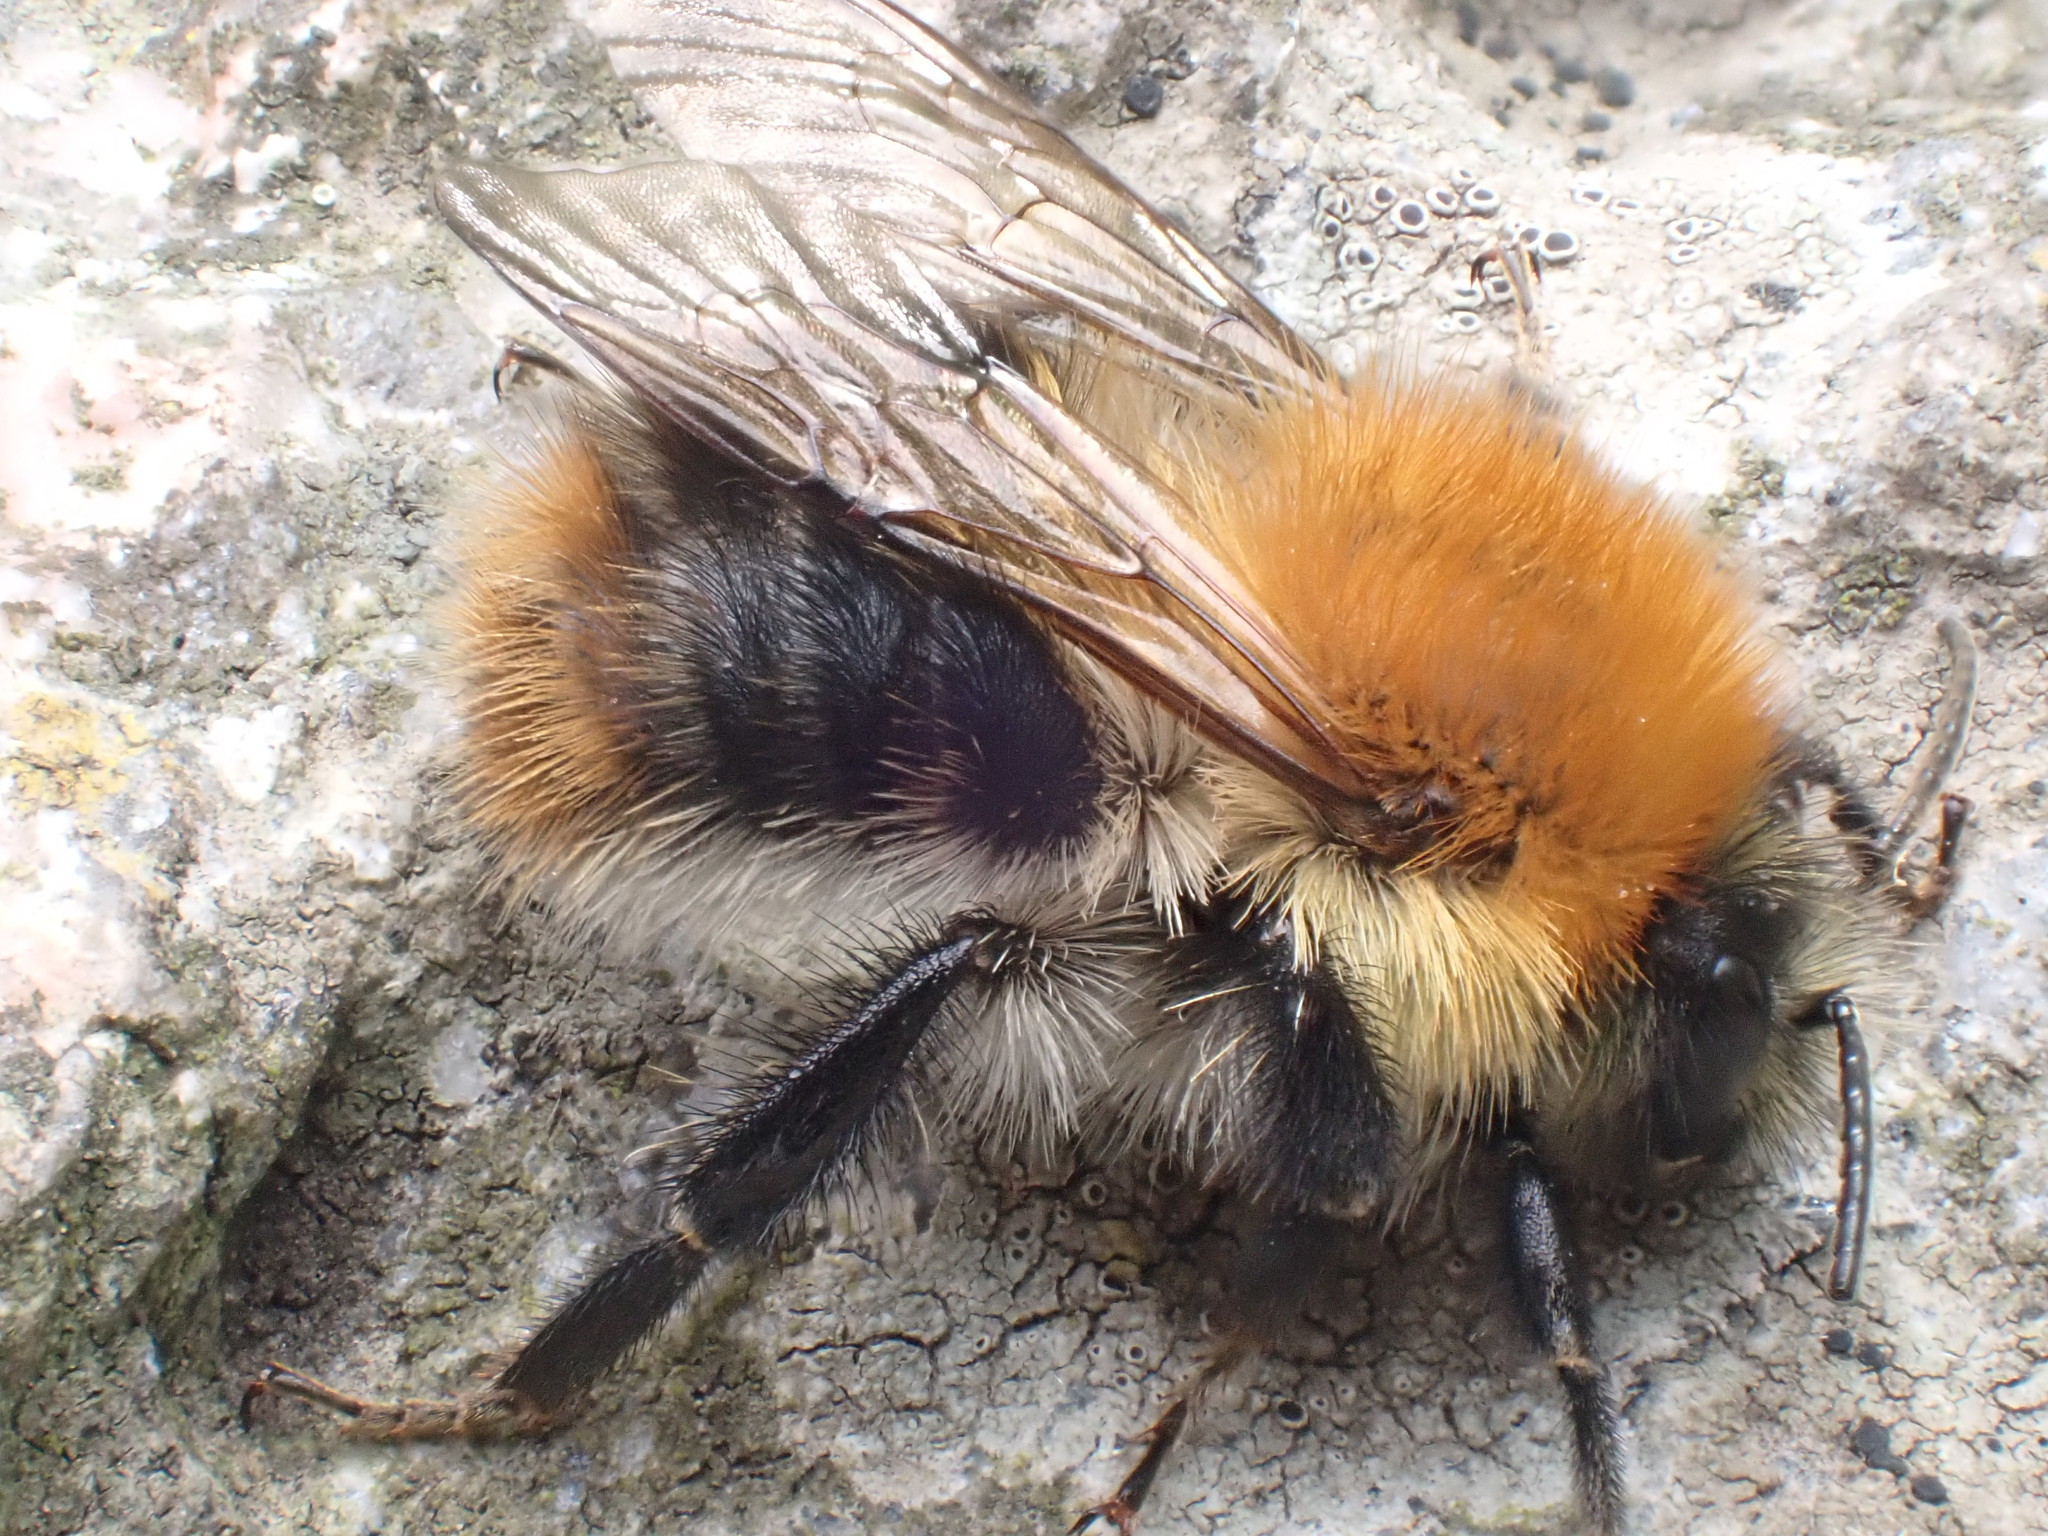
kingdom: Animalia
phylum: Arthropoda
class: Insecta
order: Hymenoptera
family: Apidae
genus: Bombus
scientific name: Bombus pascuorum
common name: Common carder bee
